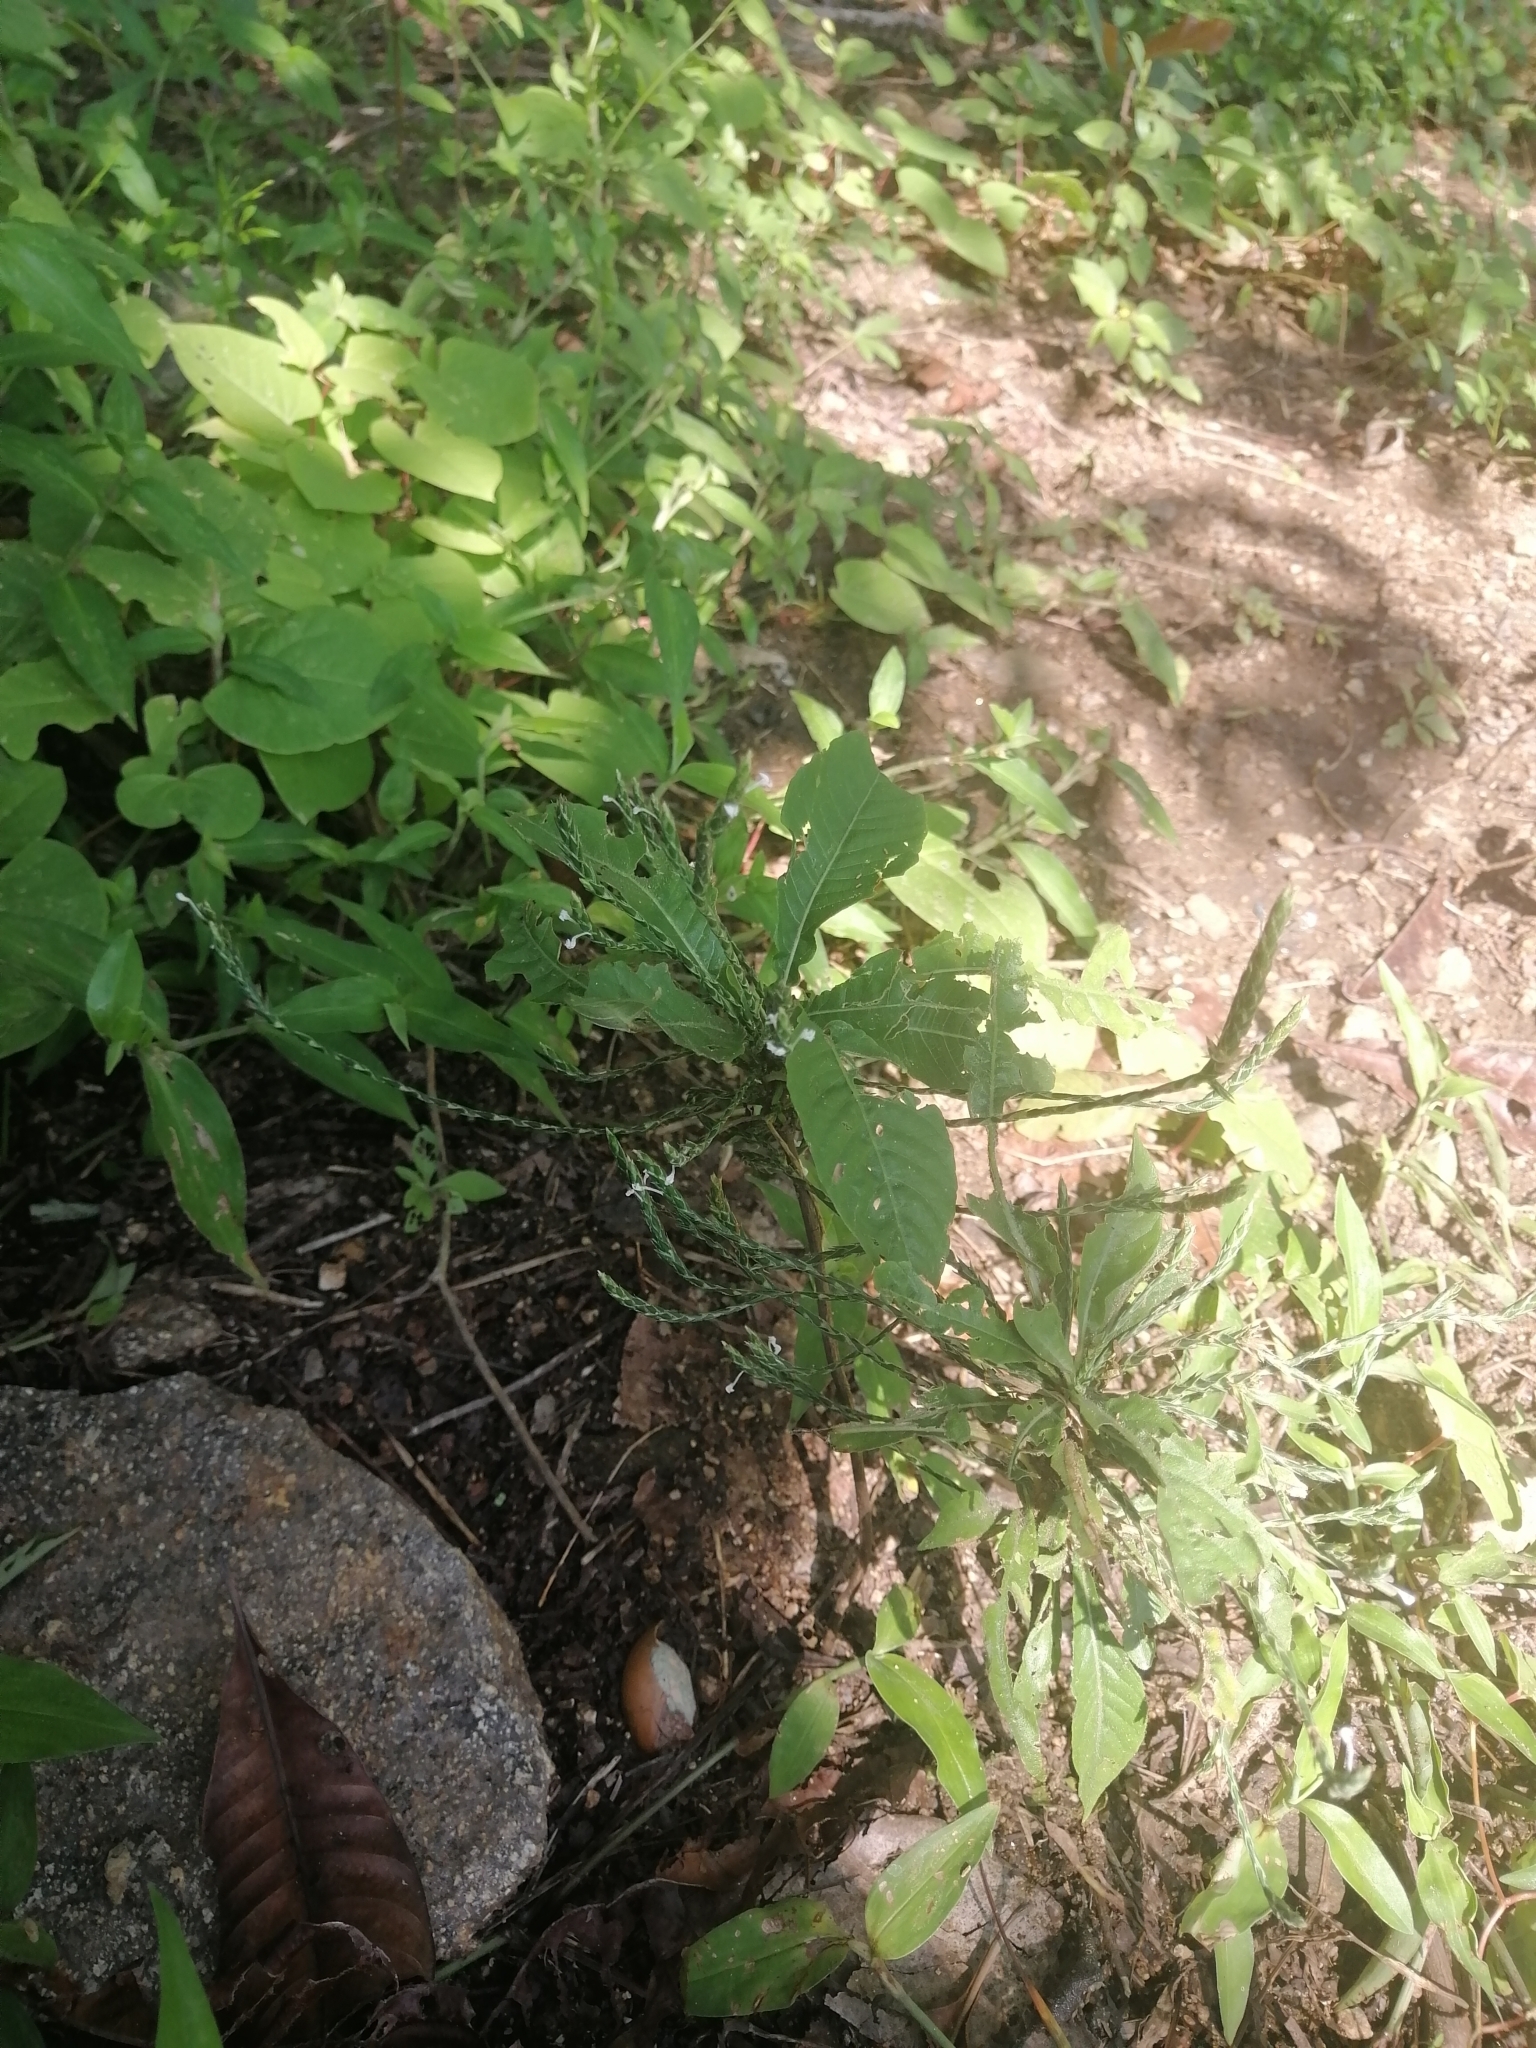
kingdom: Plantae
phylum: Tracheophyta
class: Magnoliopsida
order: Lamiales
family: Acanthaceae
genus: Elytraria
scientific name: Elytraria imbricata
